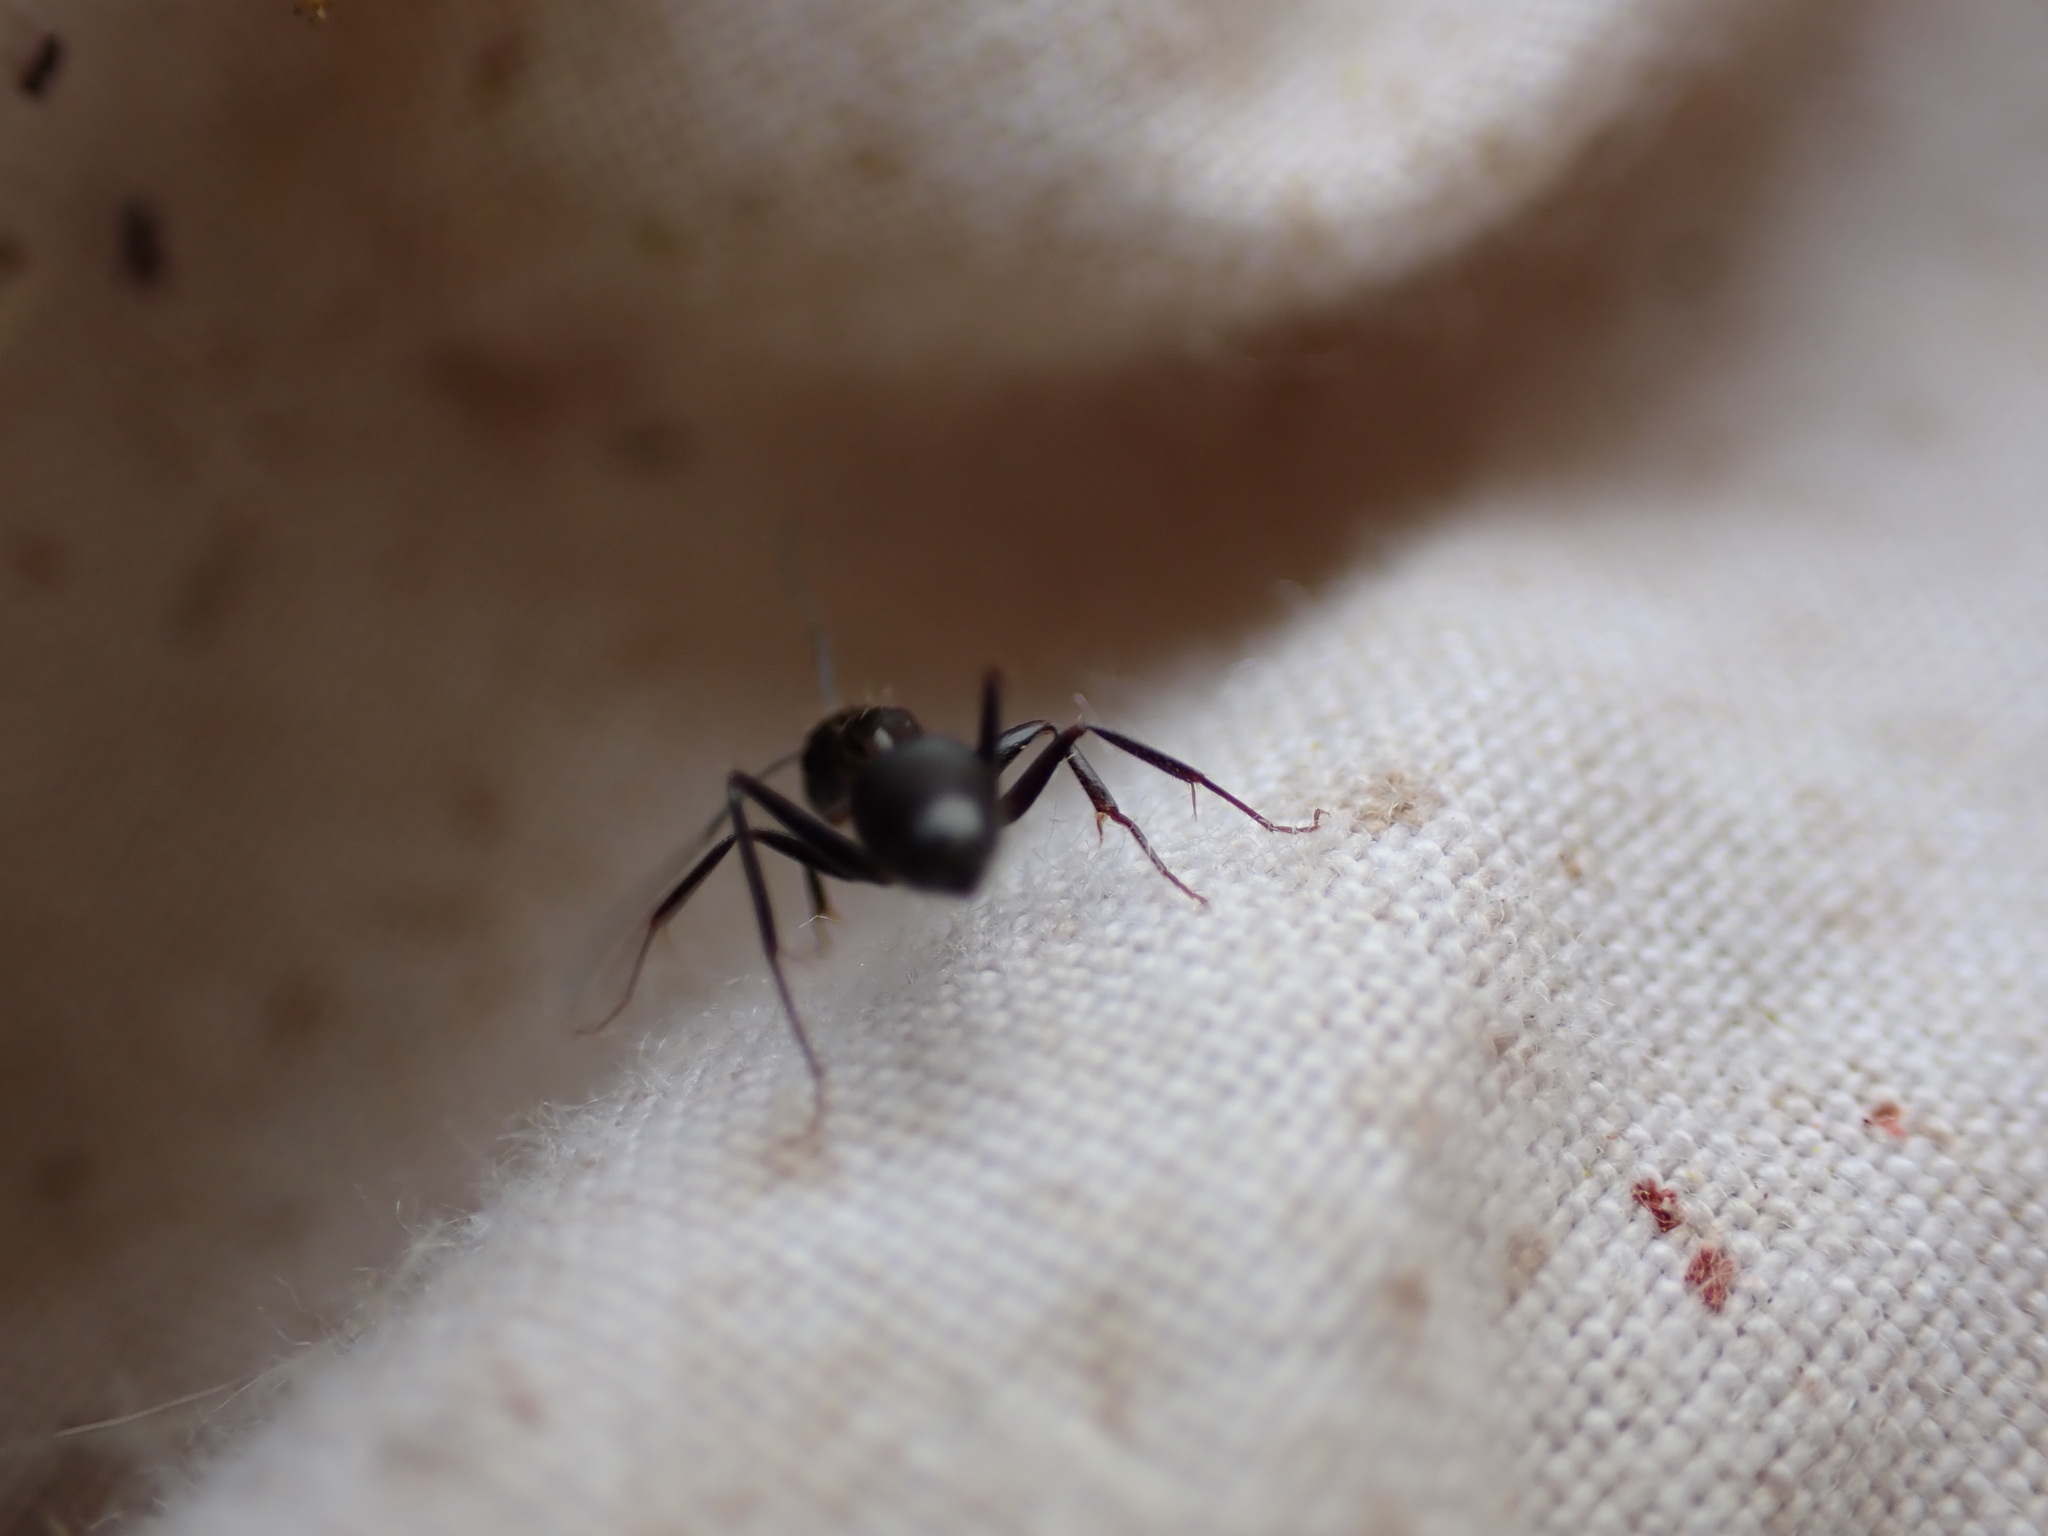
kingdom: Animalia
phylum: Arthropoda
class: Insecta
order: Hymenoptera
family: Formicidae
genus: Camponotus
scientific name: Camponotus aethiops
